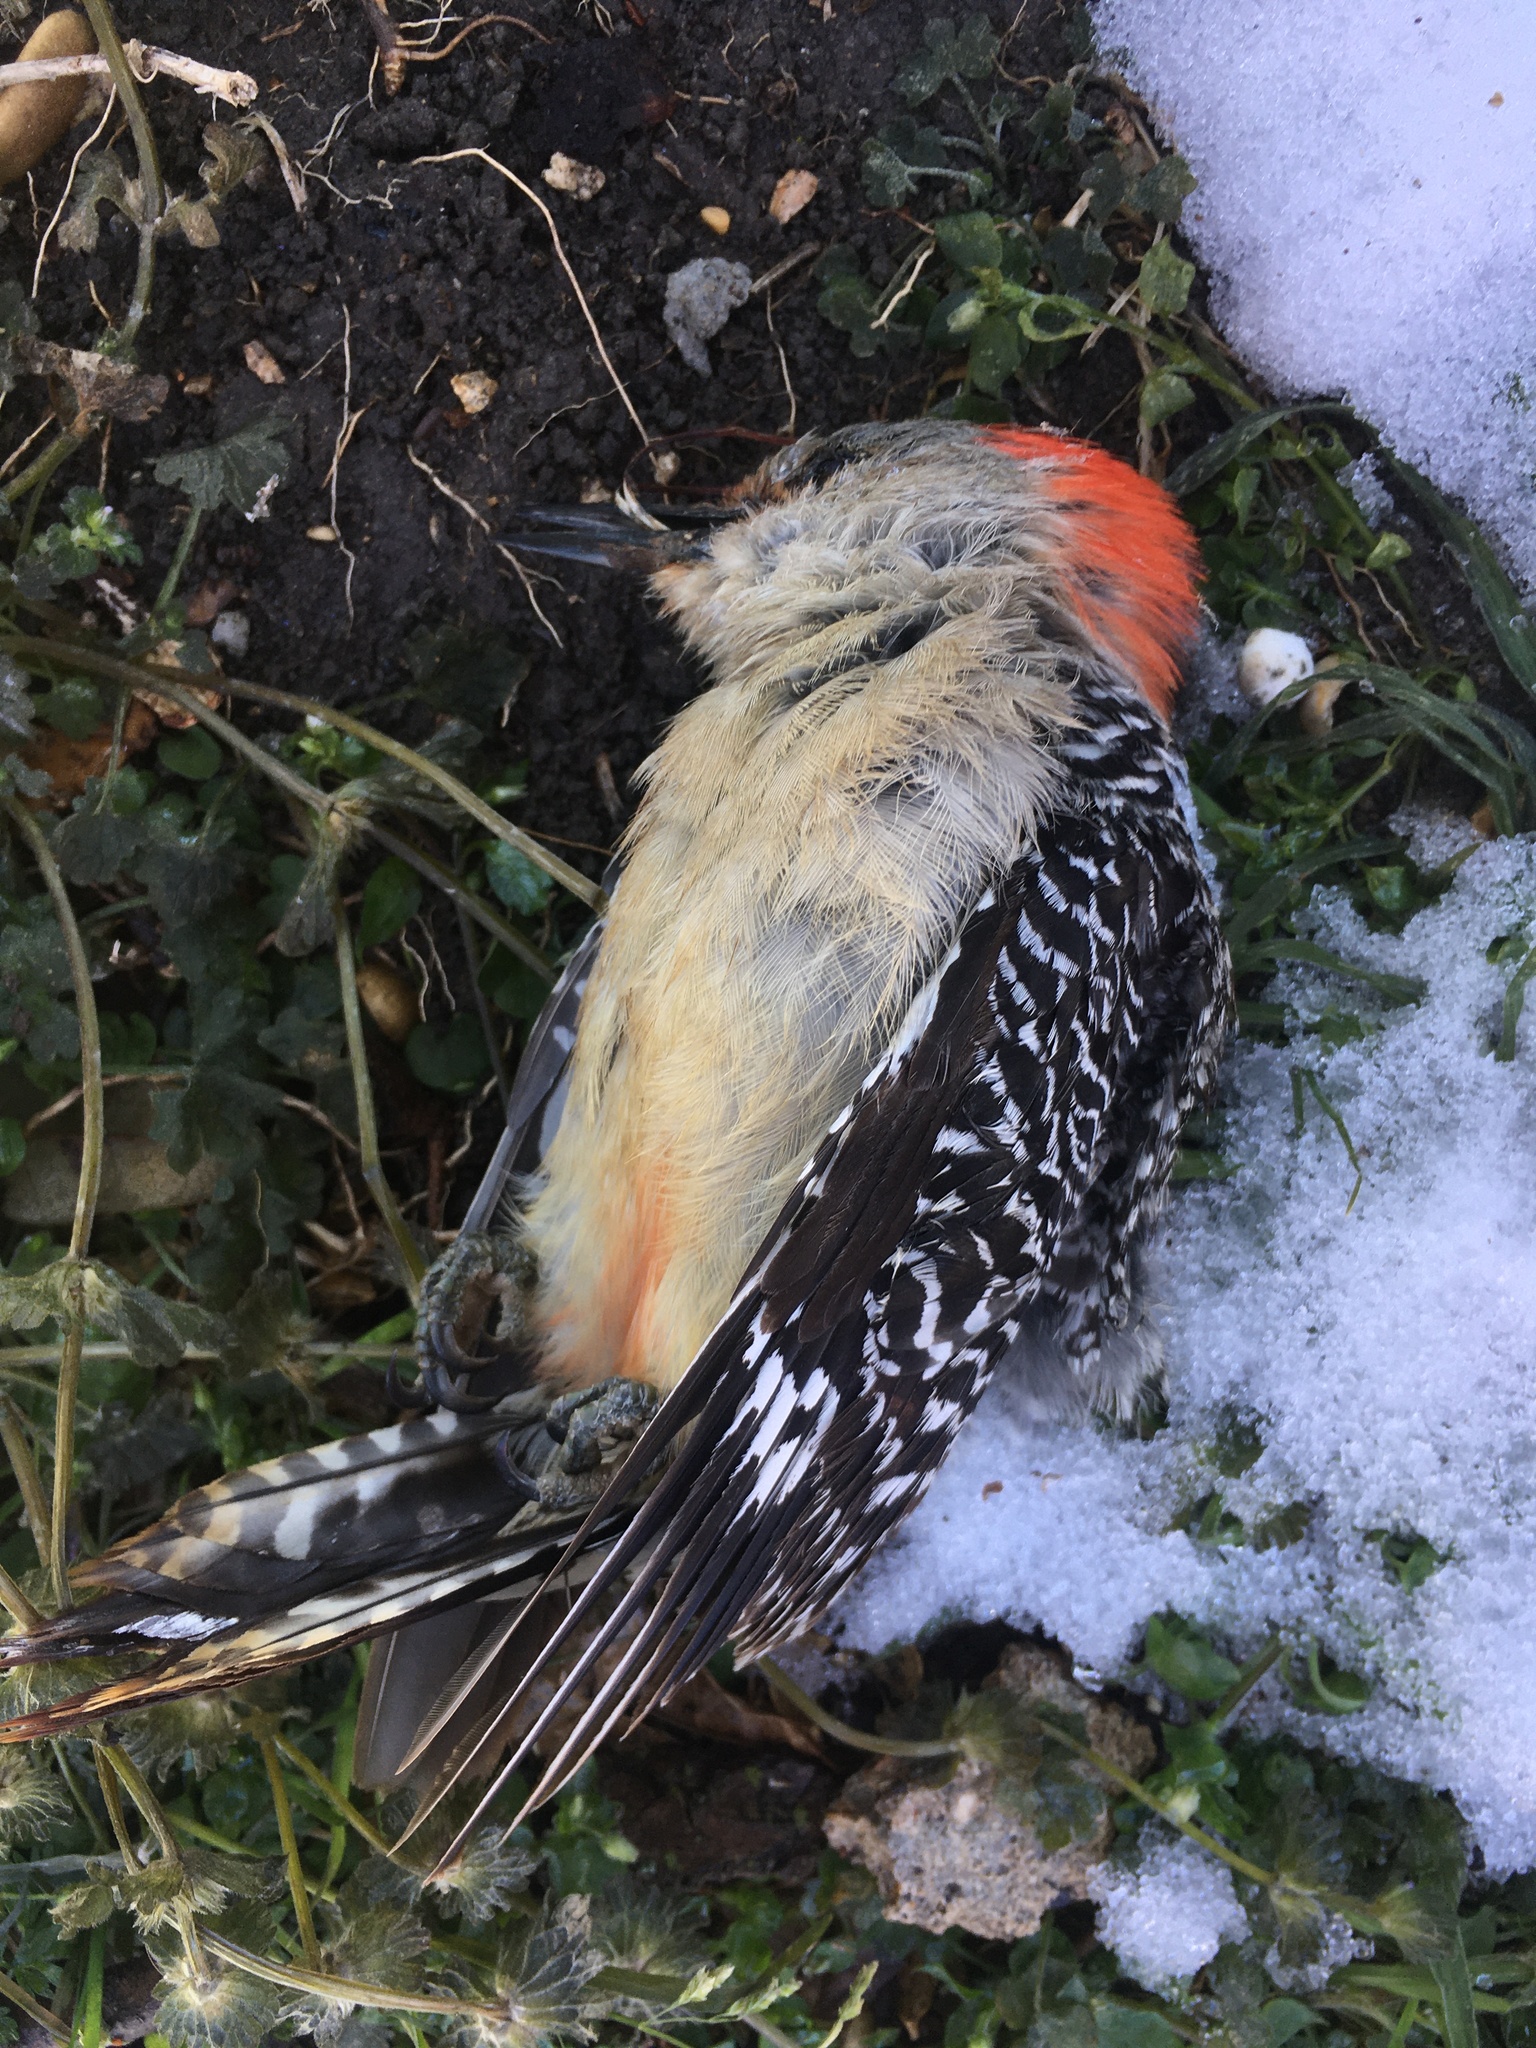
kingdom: Animalia
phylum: Chordata
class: Aves
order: Piciformes
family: Picidae
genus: Melanerpes
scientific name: Melanerpes carolinus
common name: Red-bellied woodpecker
